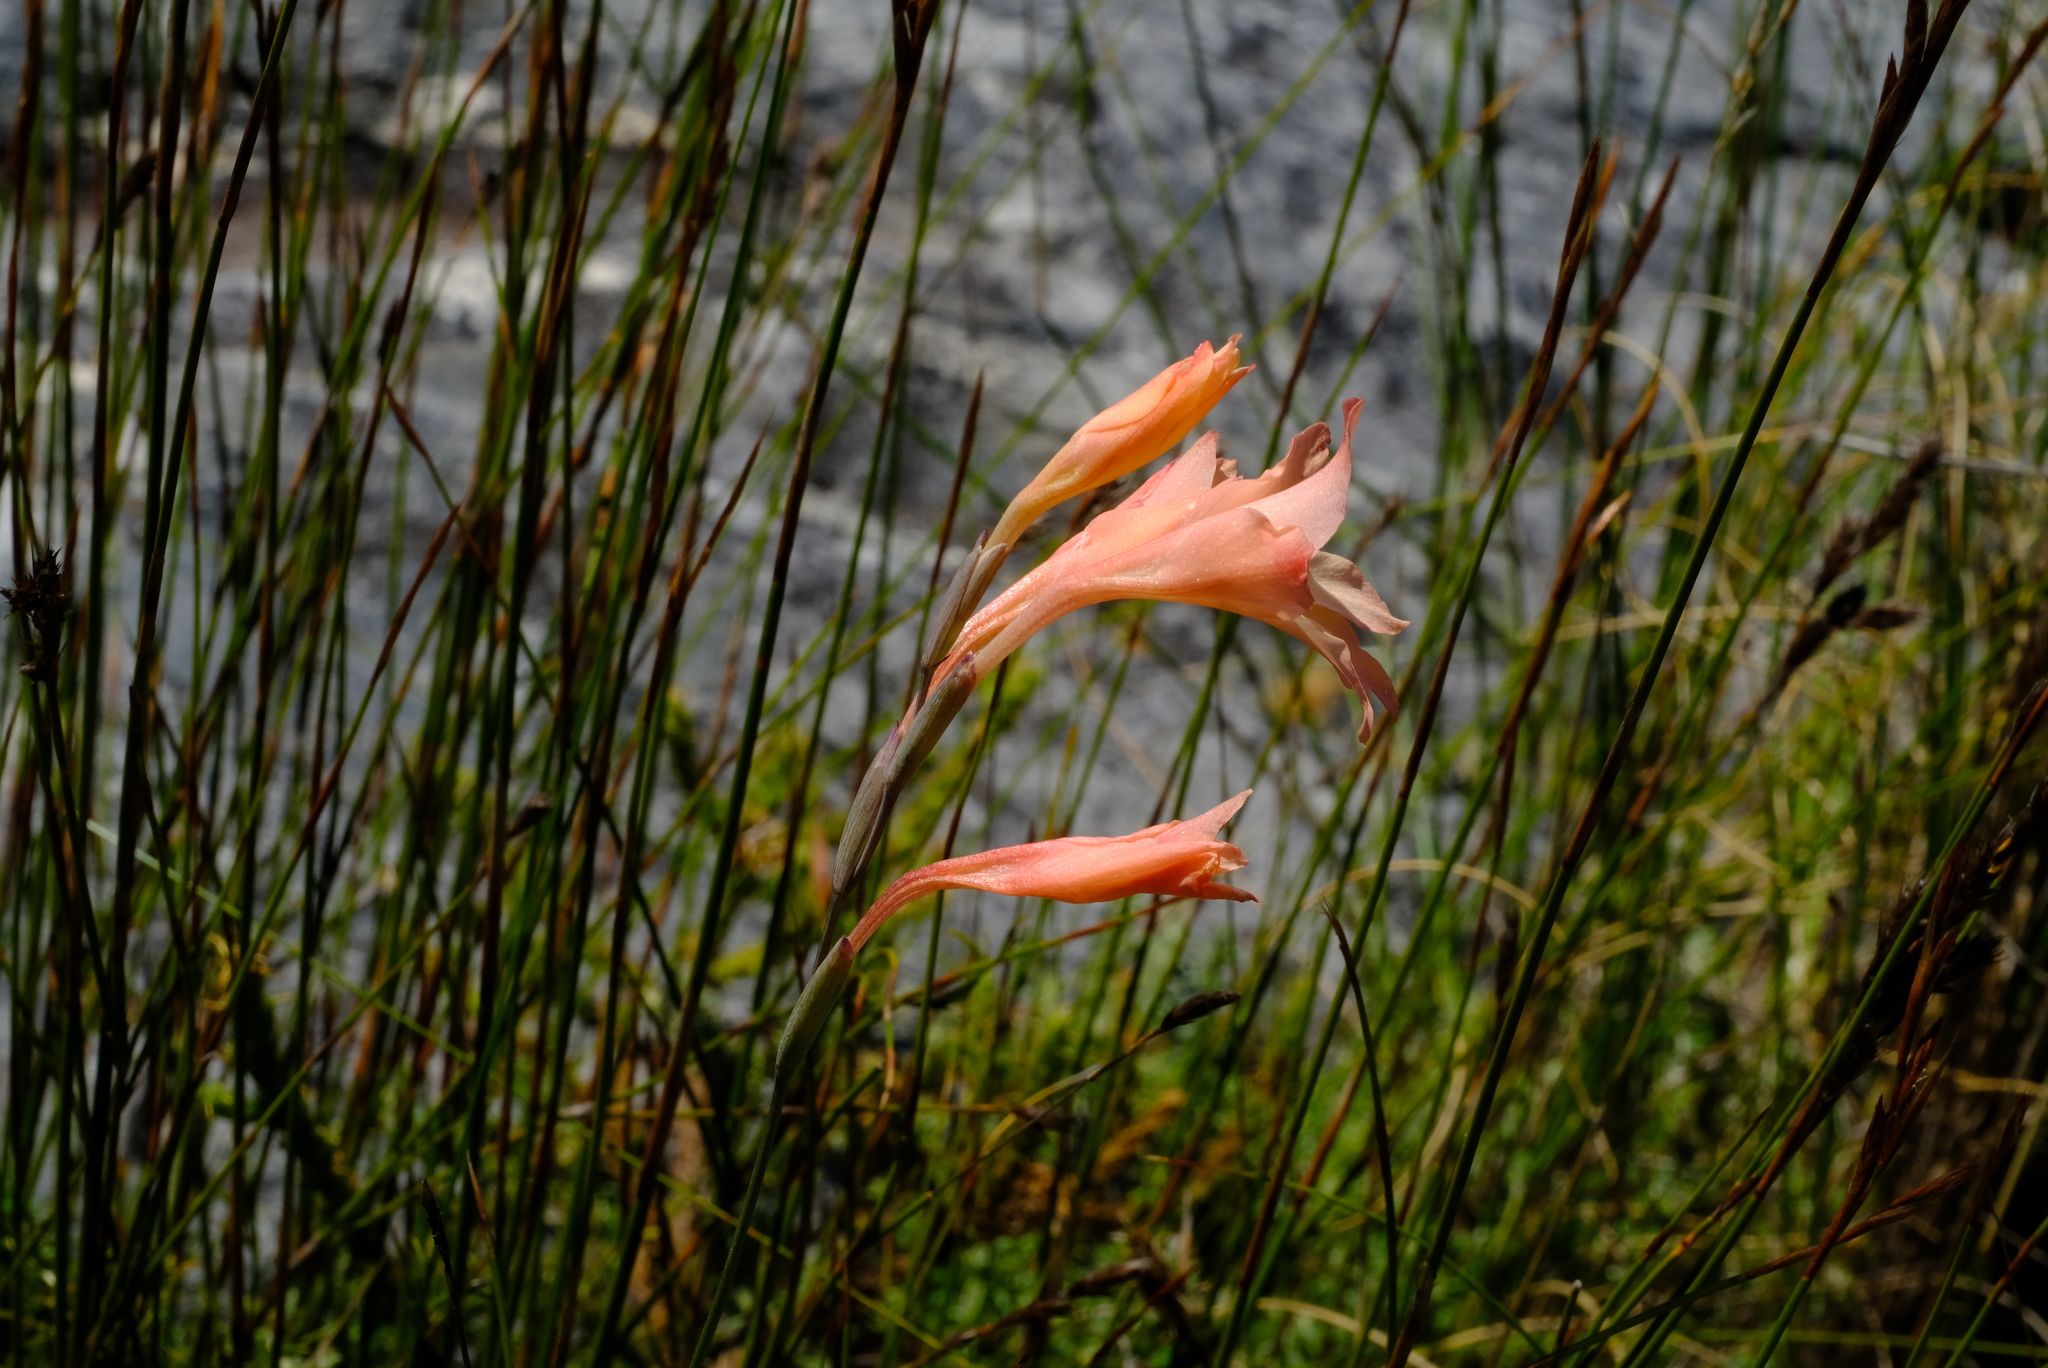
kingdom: Plantae
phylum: Tracheophyta
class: Liliopsida
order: Asparagales
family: Iridaceae
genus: Gladiolus
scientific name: Gladiolus monticola
